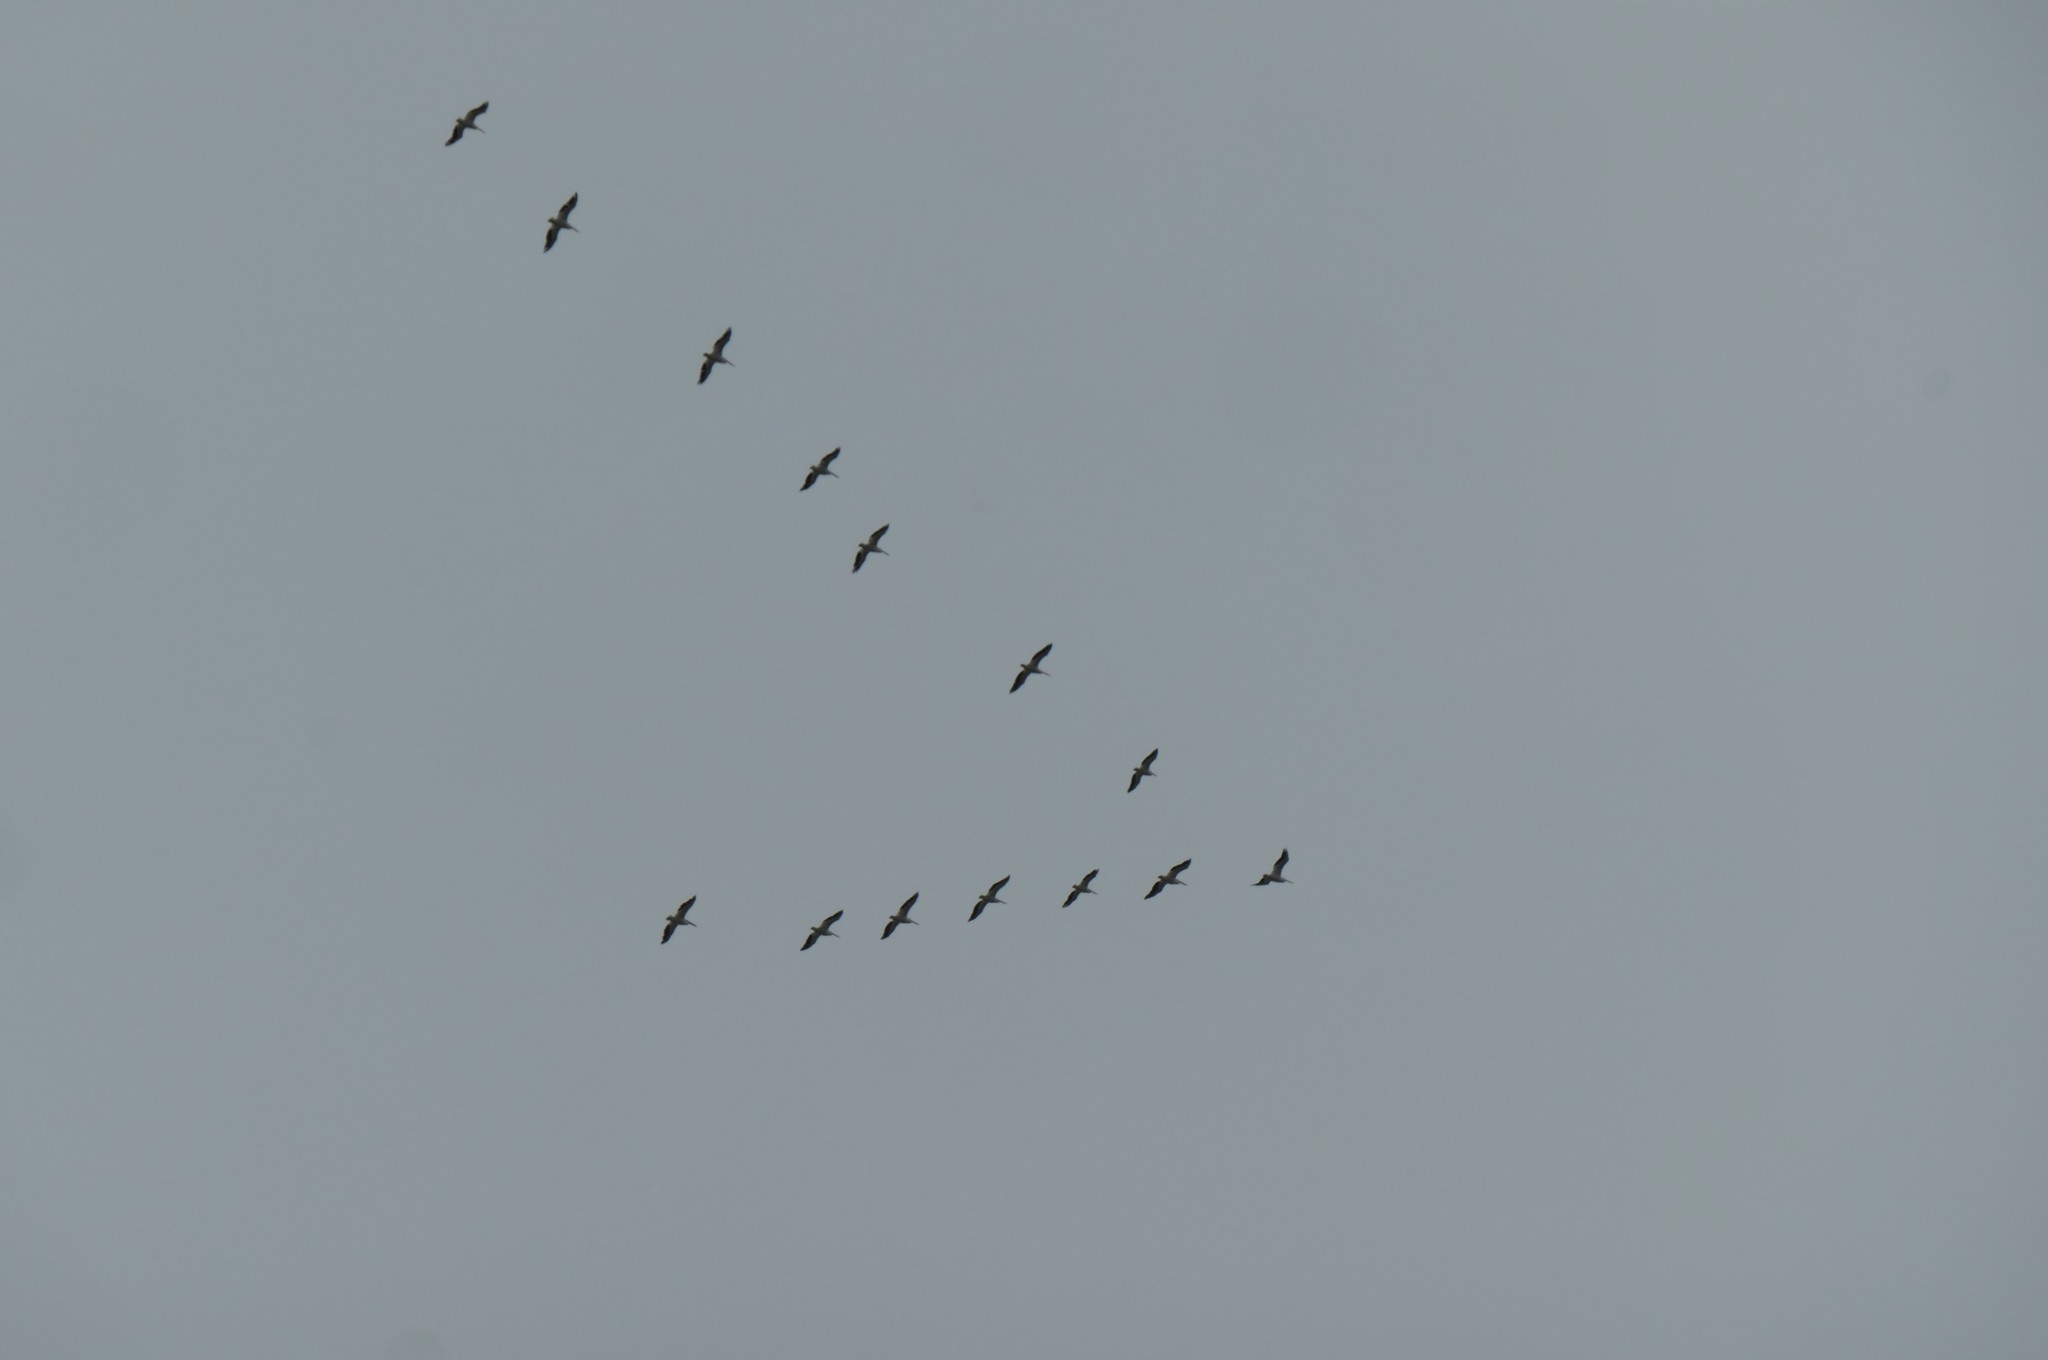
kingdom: Animalia
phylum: Chordata
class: Aves
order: Pelecaniformes
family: Pelecanidae
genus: Pelecanus
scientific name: Pelecanus erythrorhynchos
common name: American white pelican
